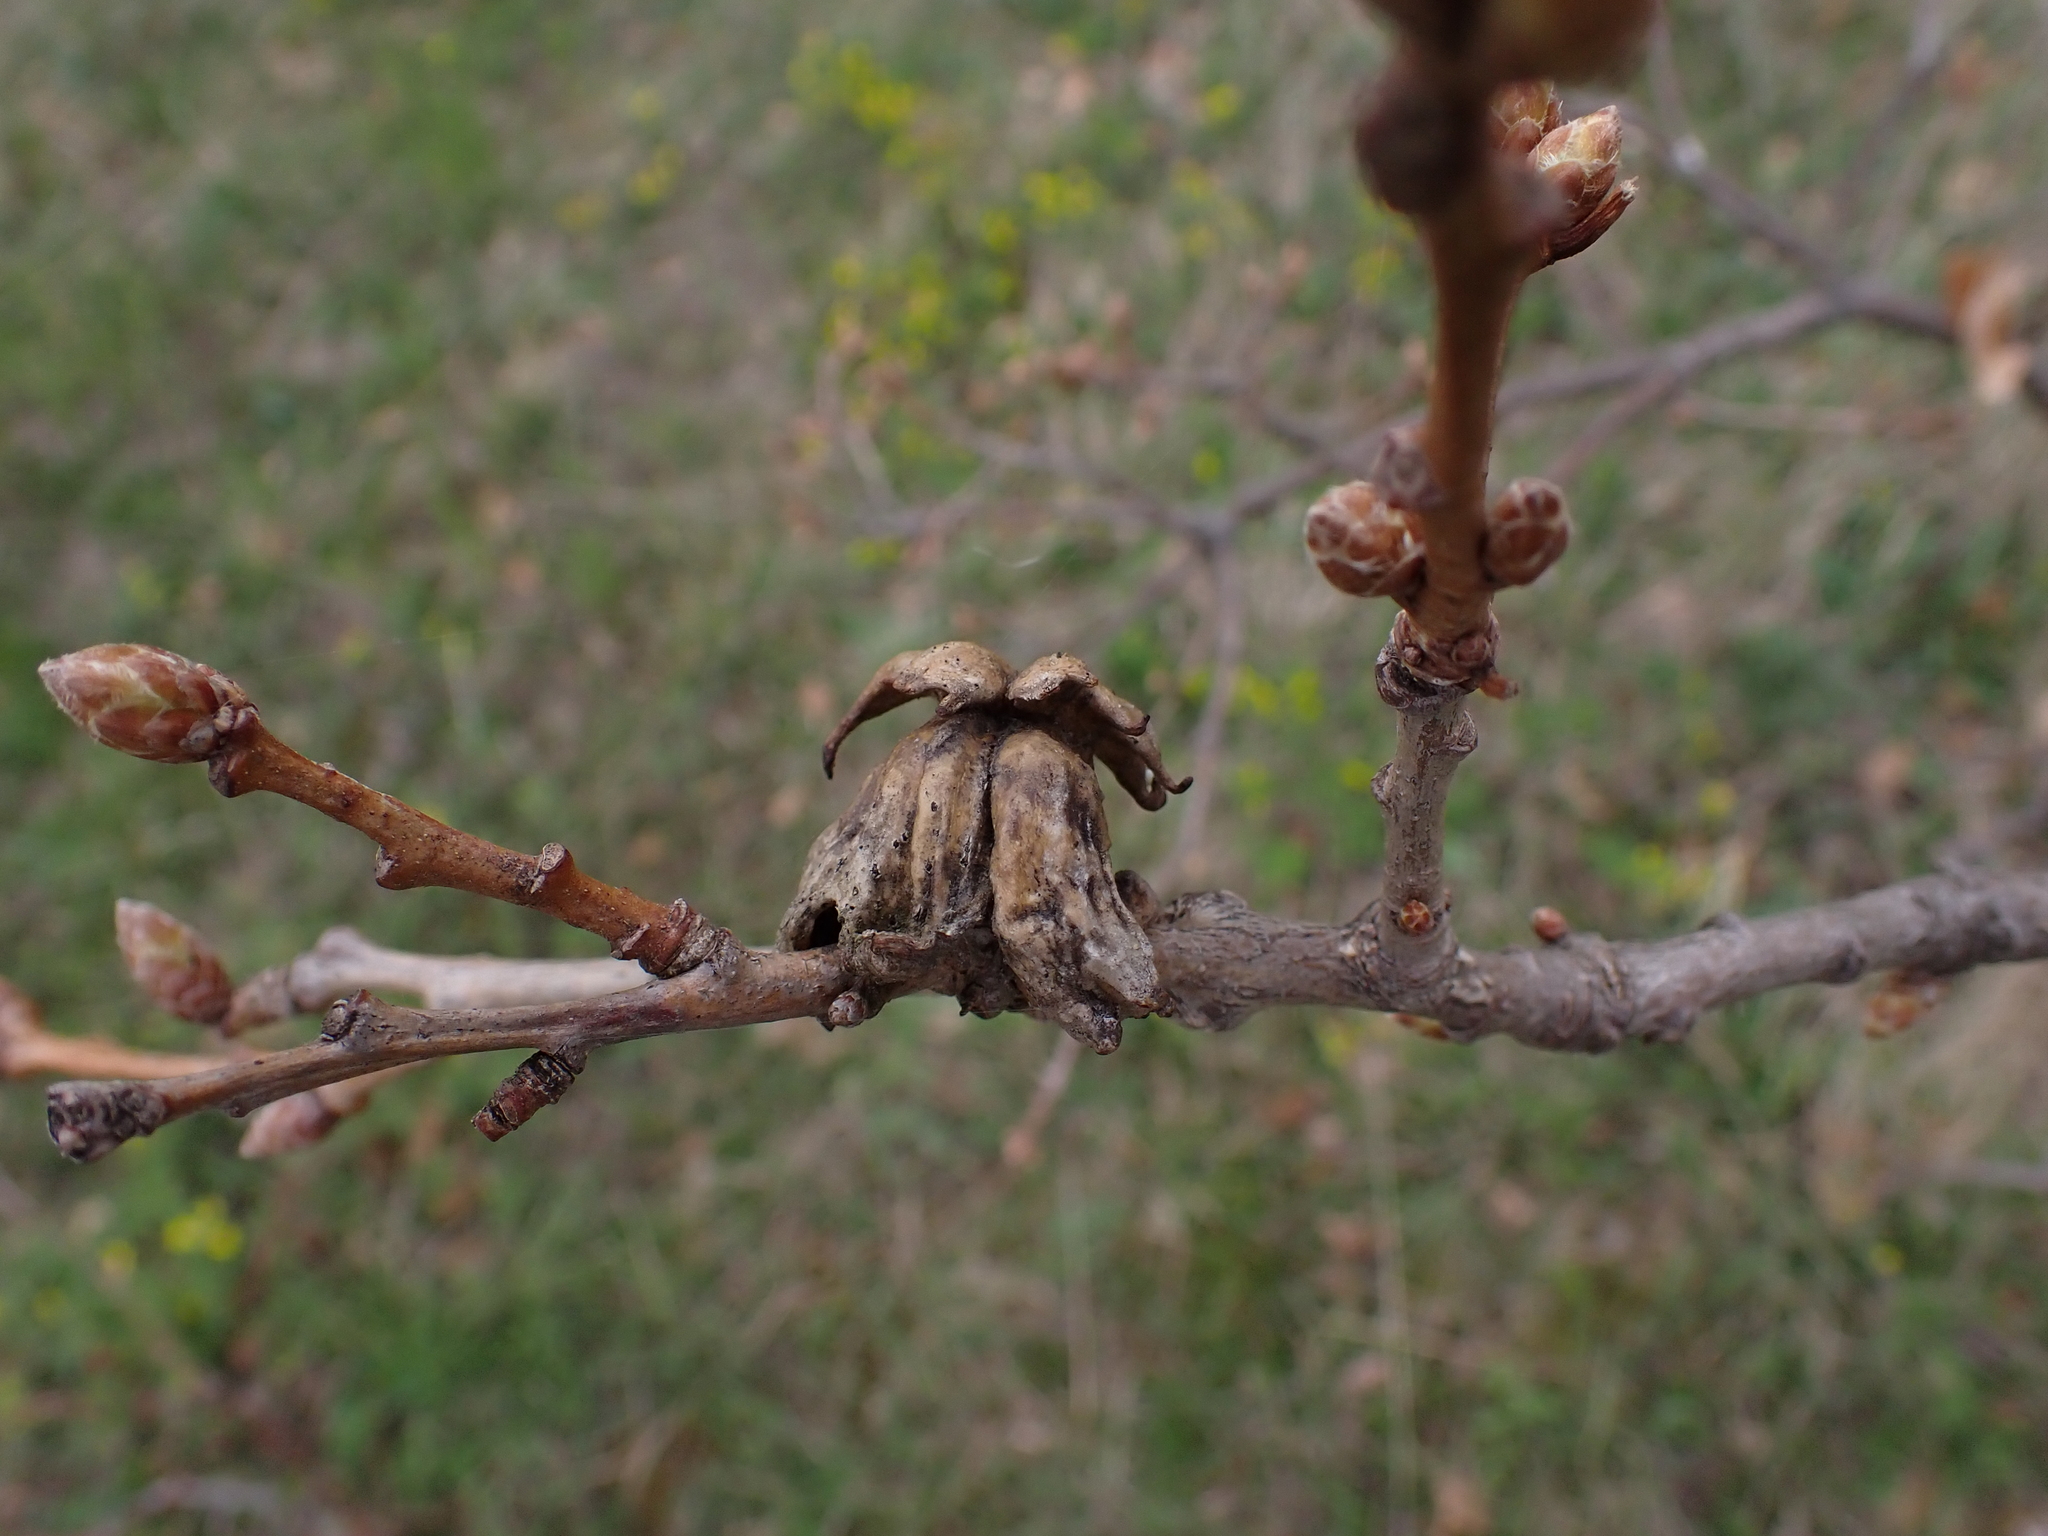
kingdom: Animalia
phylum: Arthropoda
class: Insecta
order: Hymenoptera
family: Cynipidae
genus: Andricus
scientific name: Andricus dentimitratus
